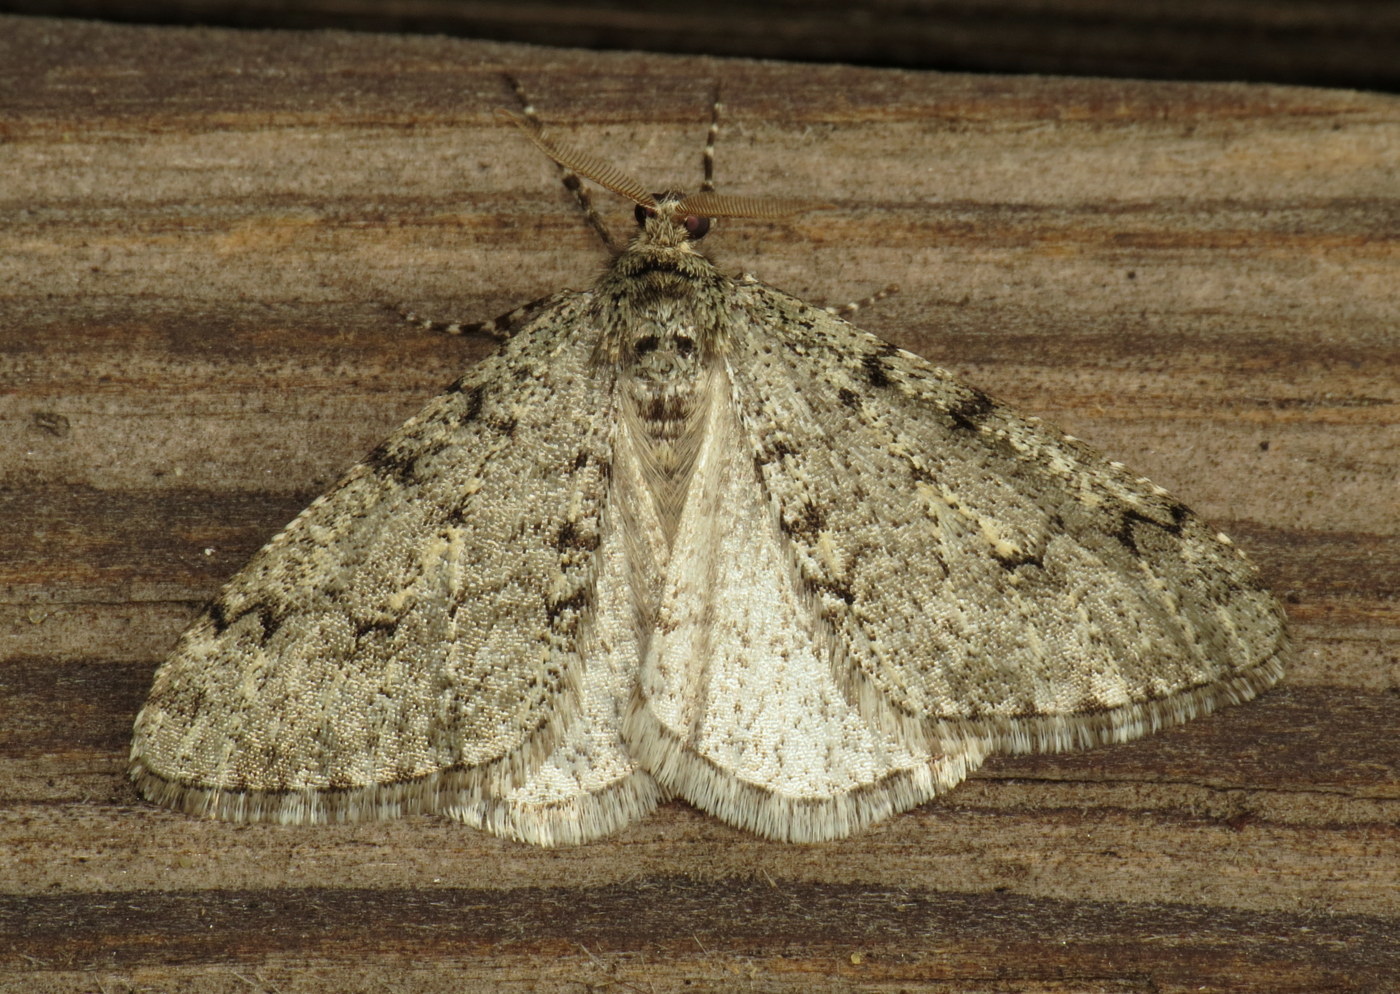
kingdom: Animalia
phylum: Arthropoda
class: Insecta
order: Lepidoptera
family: Geometridae
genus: Phigalia
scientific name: Phigalia strigataria
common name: Small phigalia
